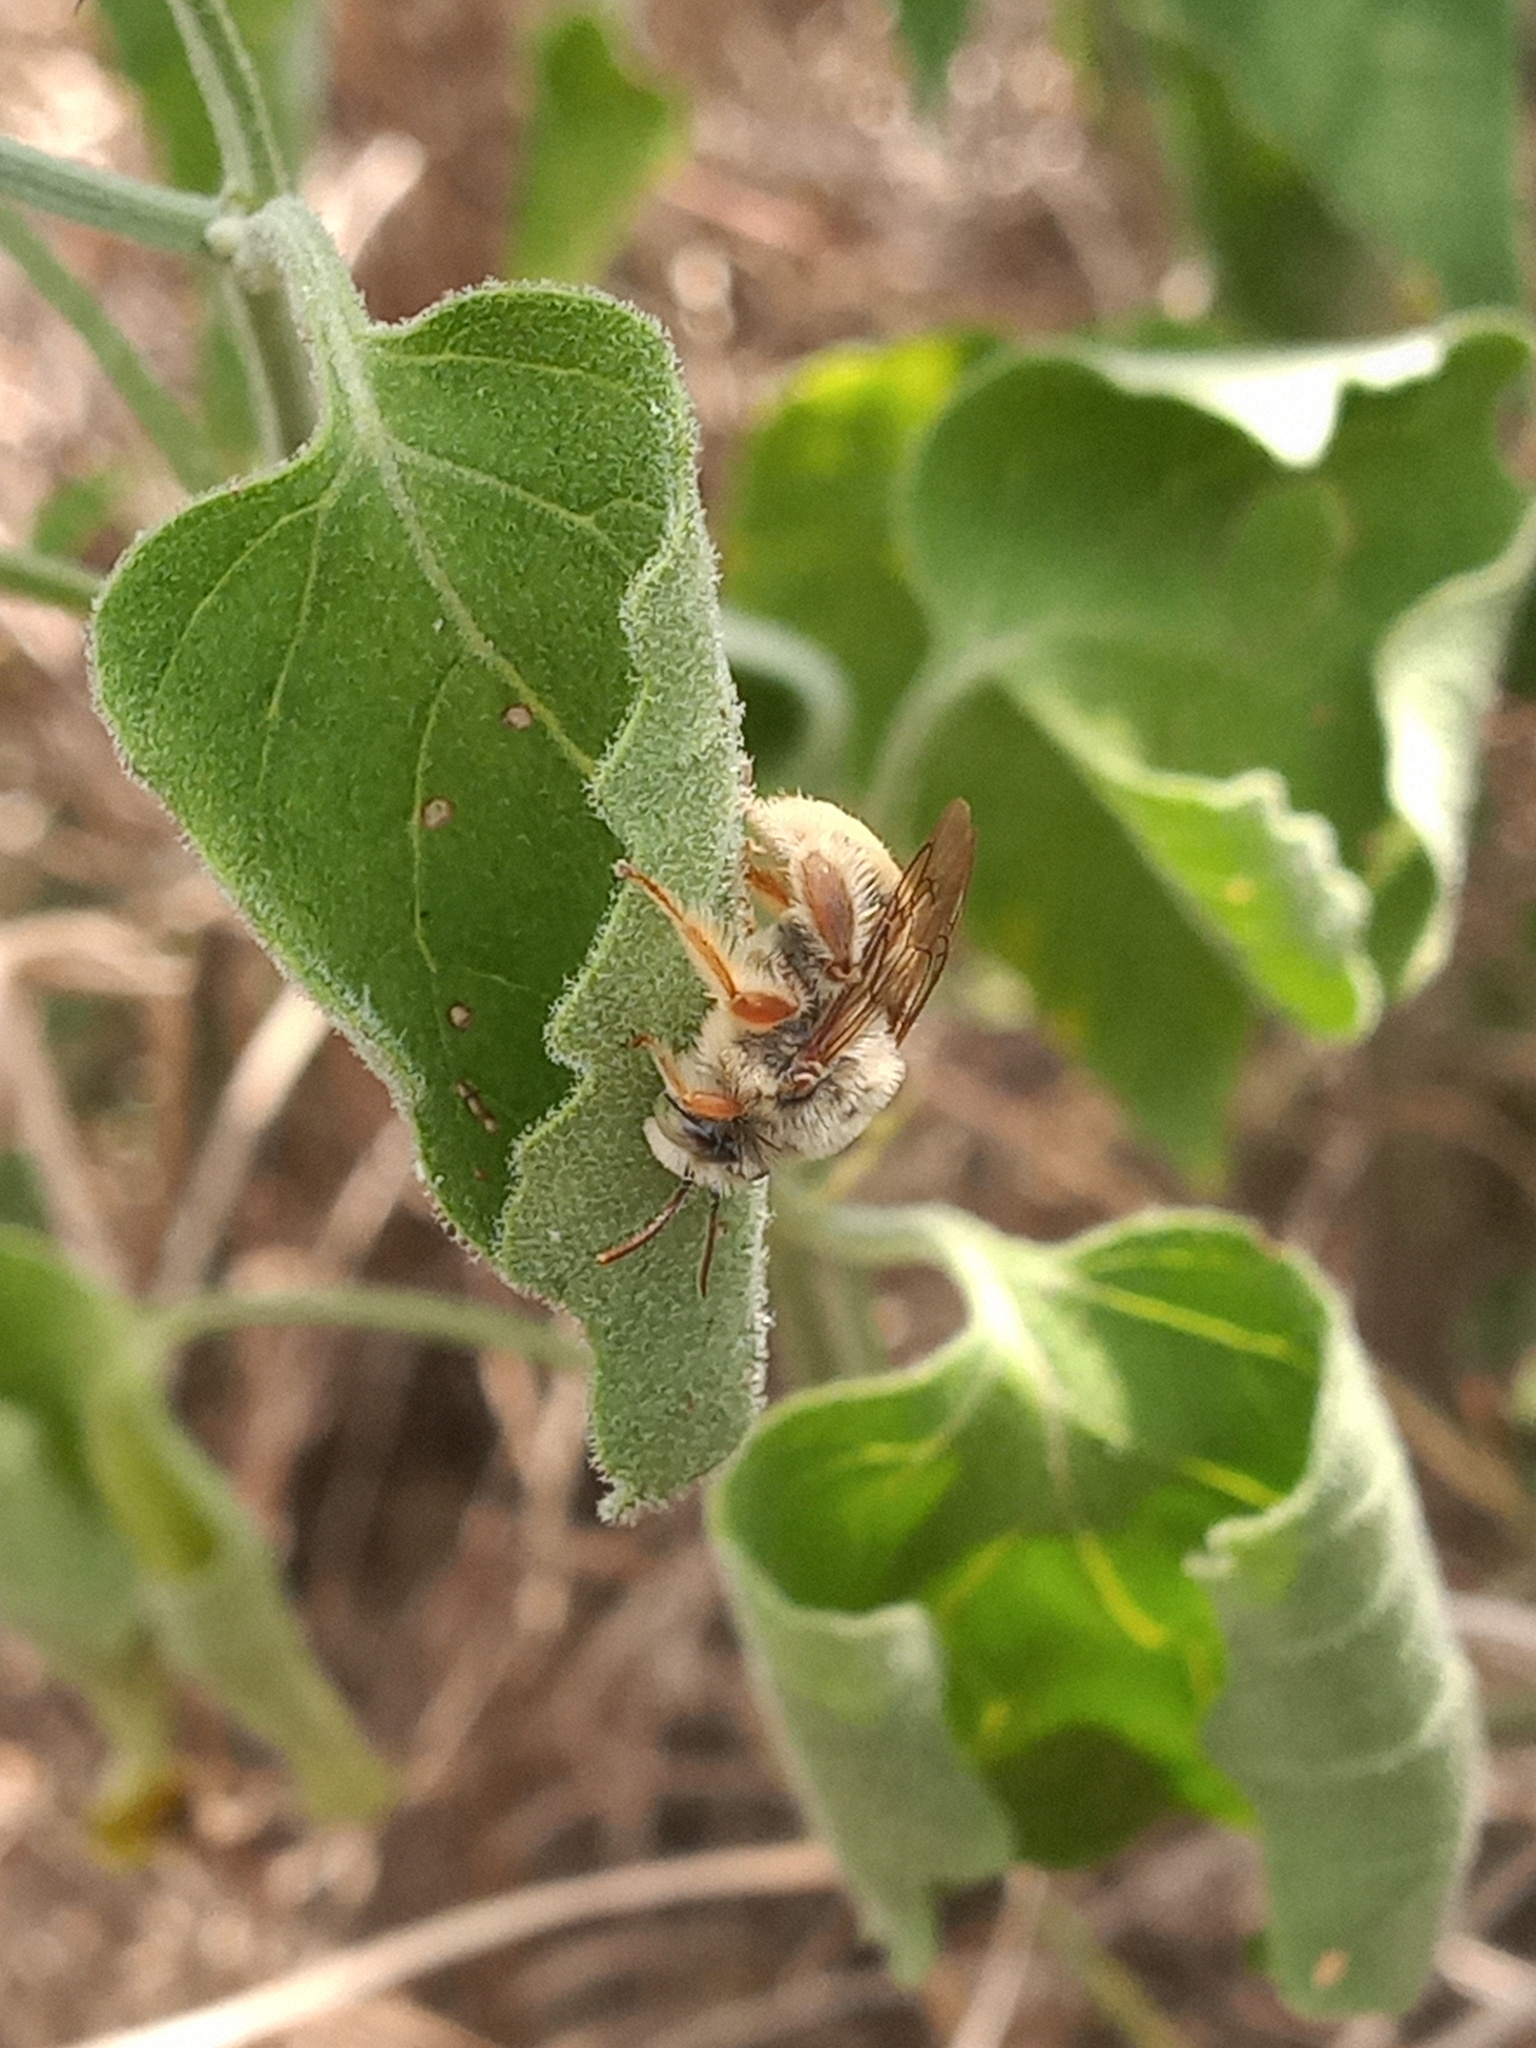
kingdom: Animalia
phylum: Arthropoda
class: Insecta
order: Hymenoptera
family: Apidae
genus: Diadasia
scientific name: Diadasia tropicalis
